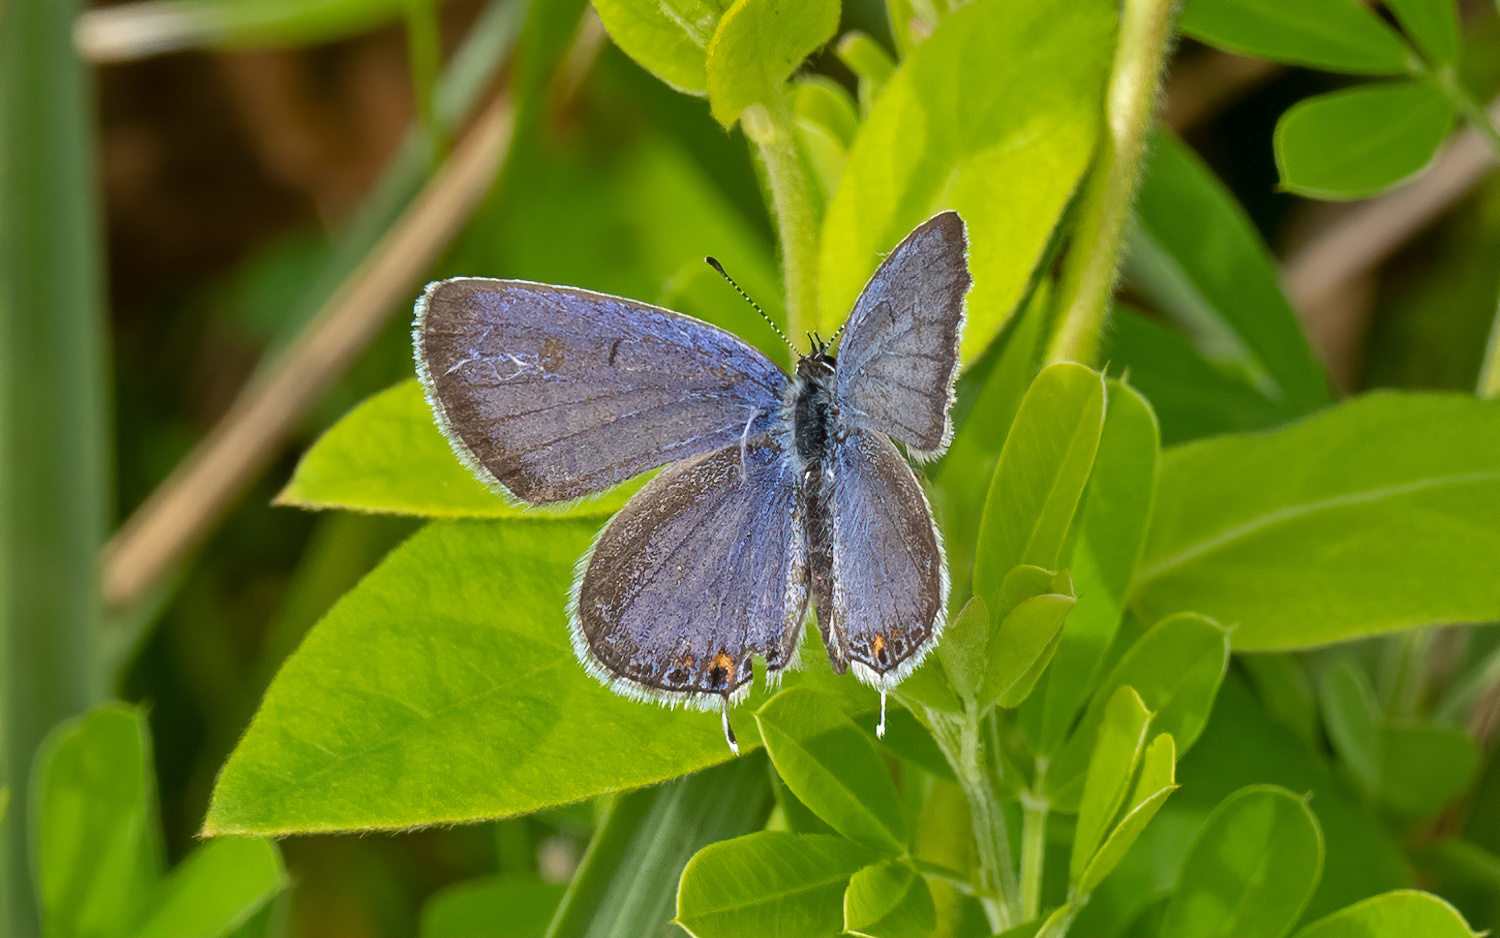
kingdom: Animalia
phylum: Arthropoda
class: Insecta
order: Lepidoptera
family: Lycaenidae
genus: Elkalyce
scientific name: Elkalyce comyntas
